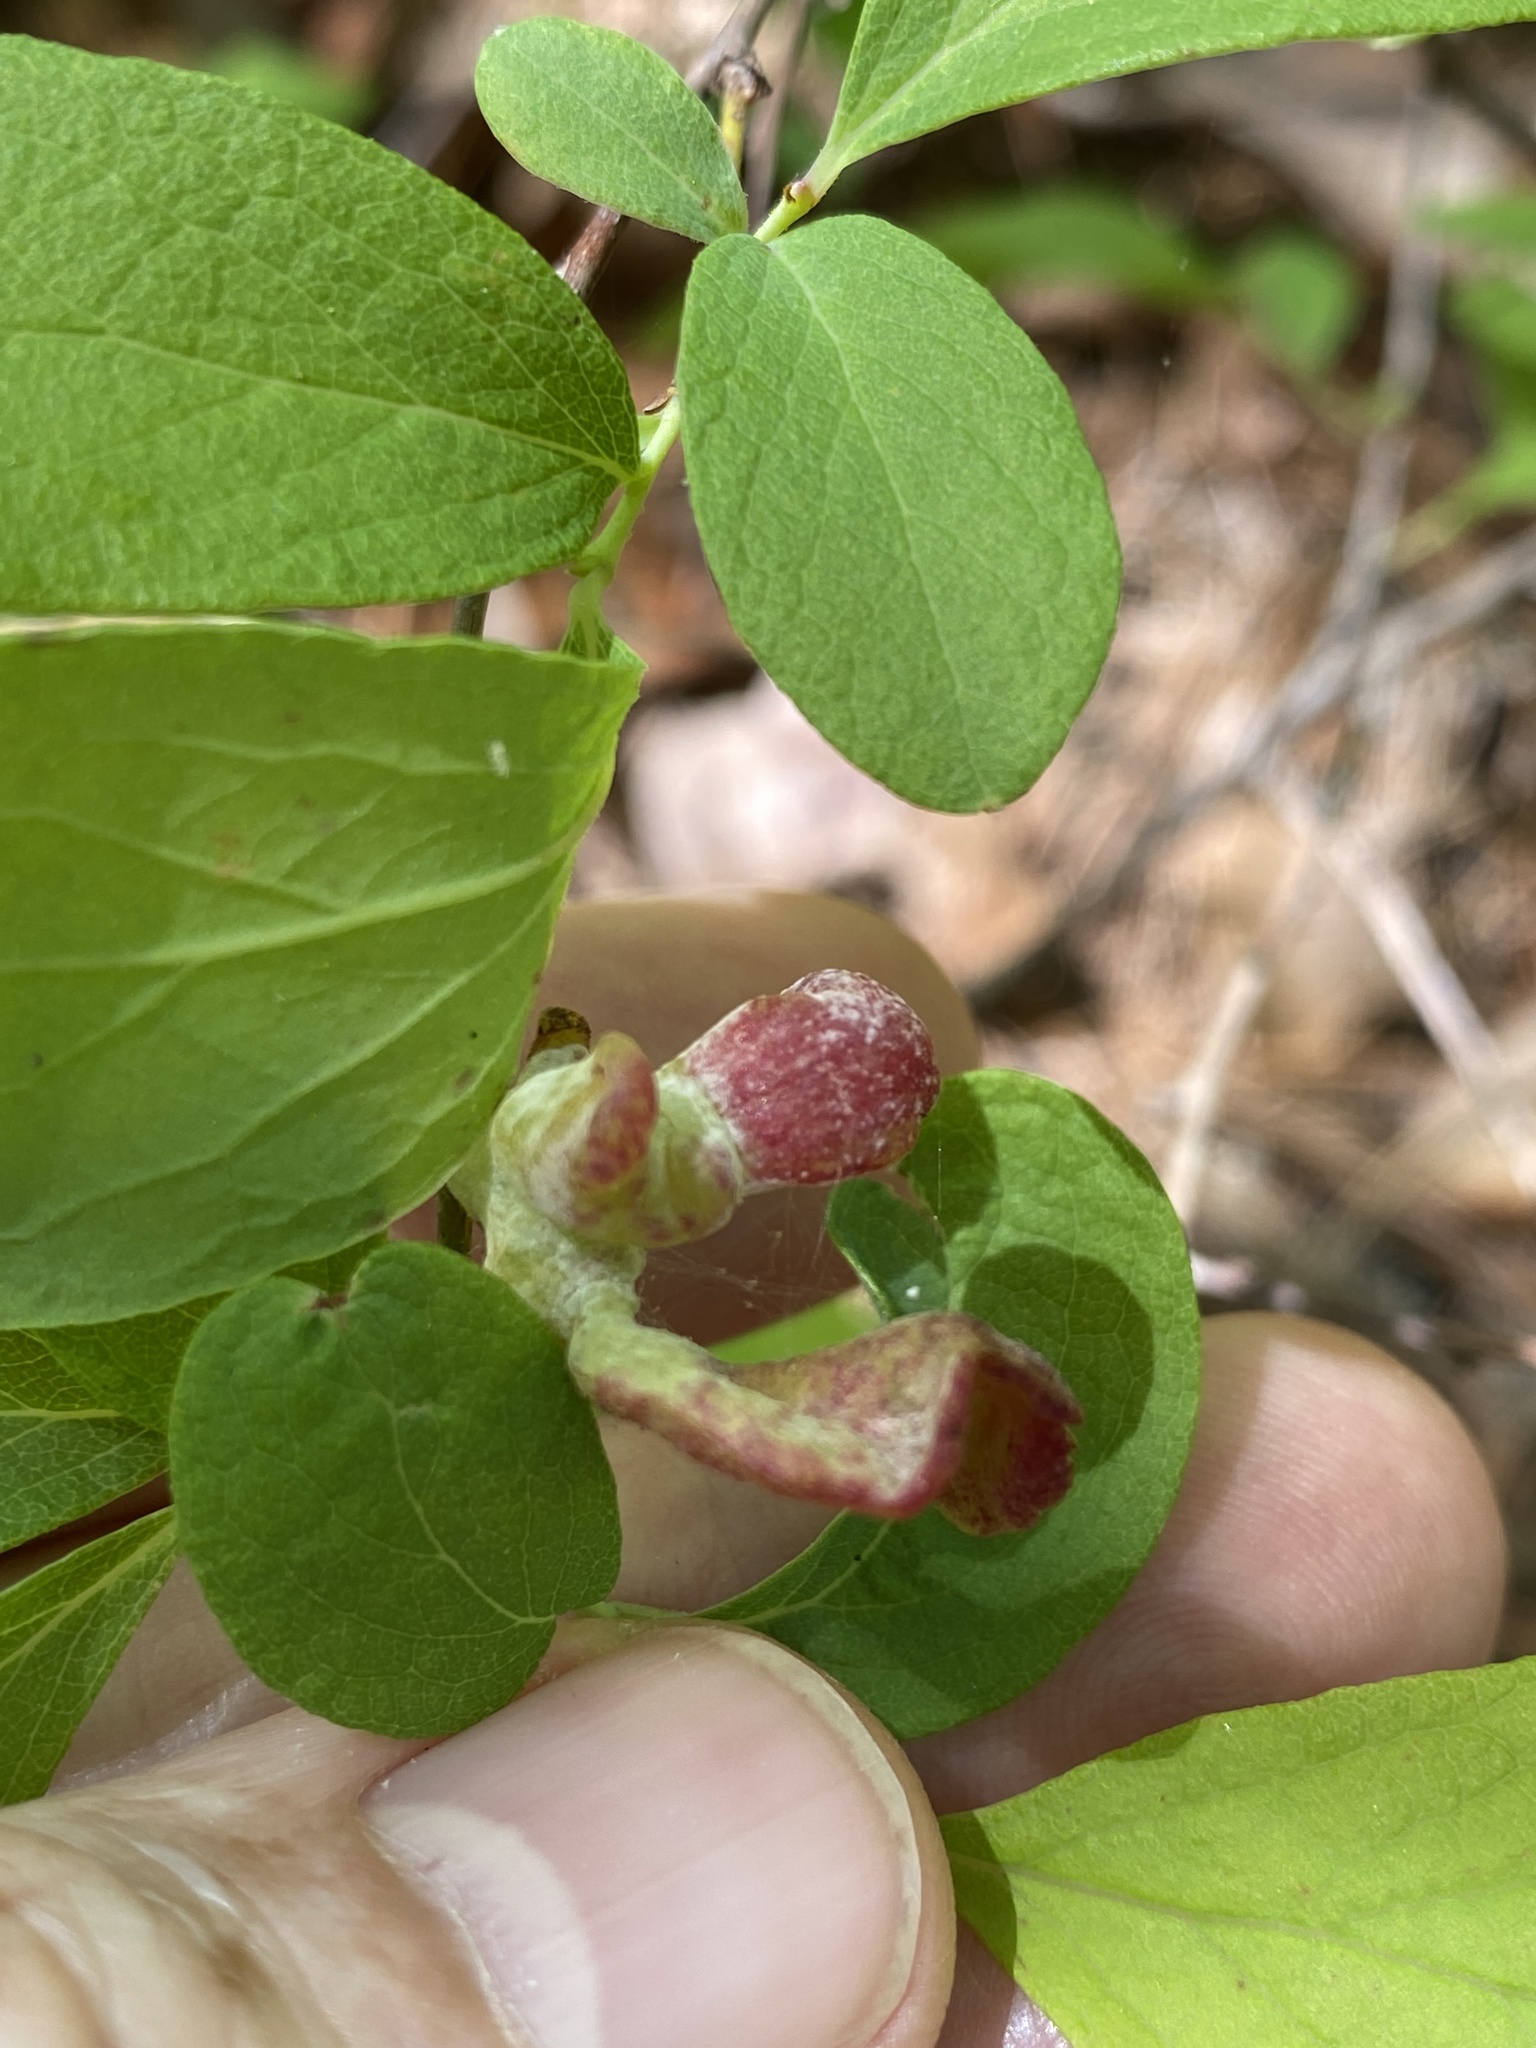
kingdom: Fungi
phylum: Basidiomycota
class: Exobasidiomycetes
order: Exobasidiales
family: Exobasidiaceae
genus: Exobasidium
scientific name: Exobasidium vaccinii
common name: Cowberry redleaf
